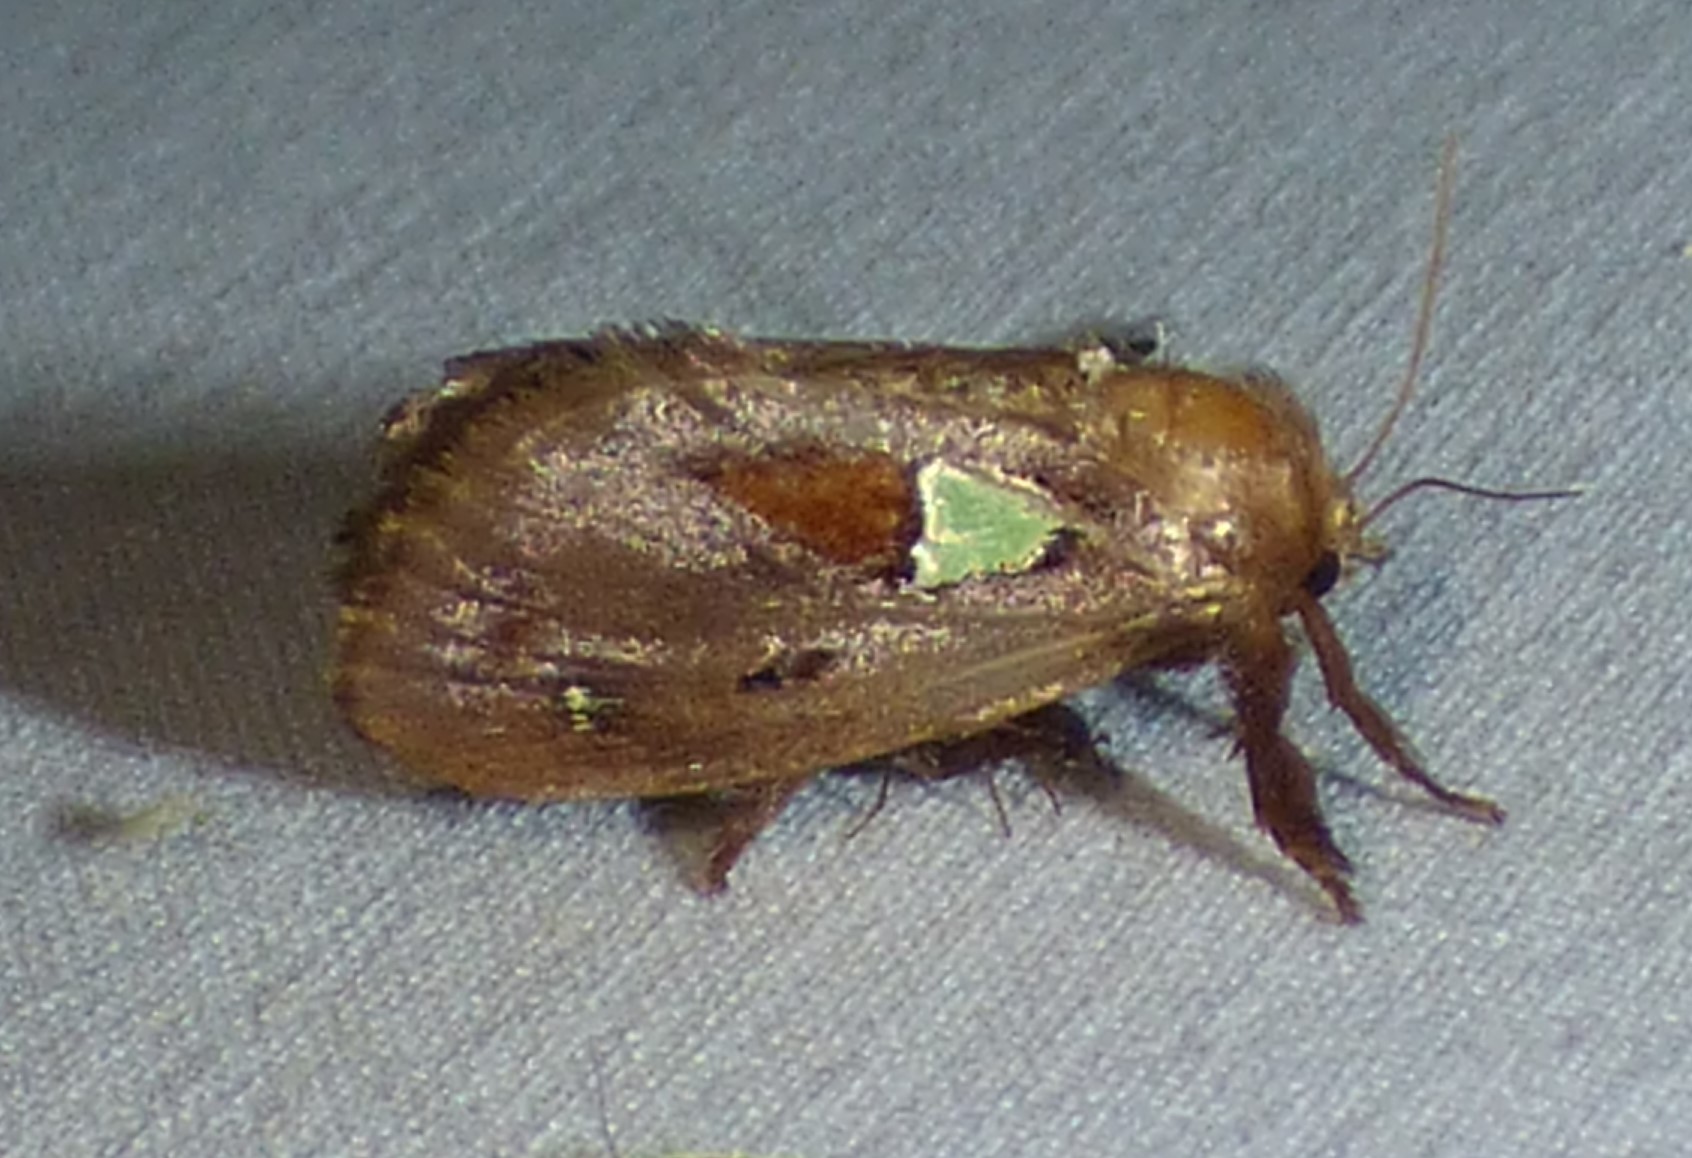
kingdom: Animalia
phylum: Arthropoda
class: Insecta
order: Lepidoptera
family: Limacodidae
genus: Euclea
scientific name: Euclea delphinii
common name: Spiny oak-slug moth
